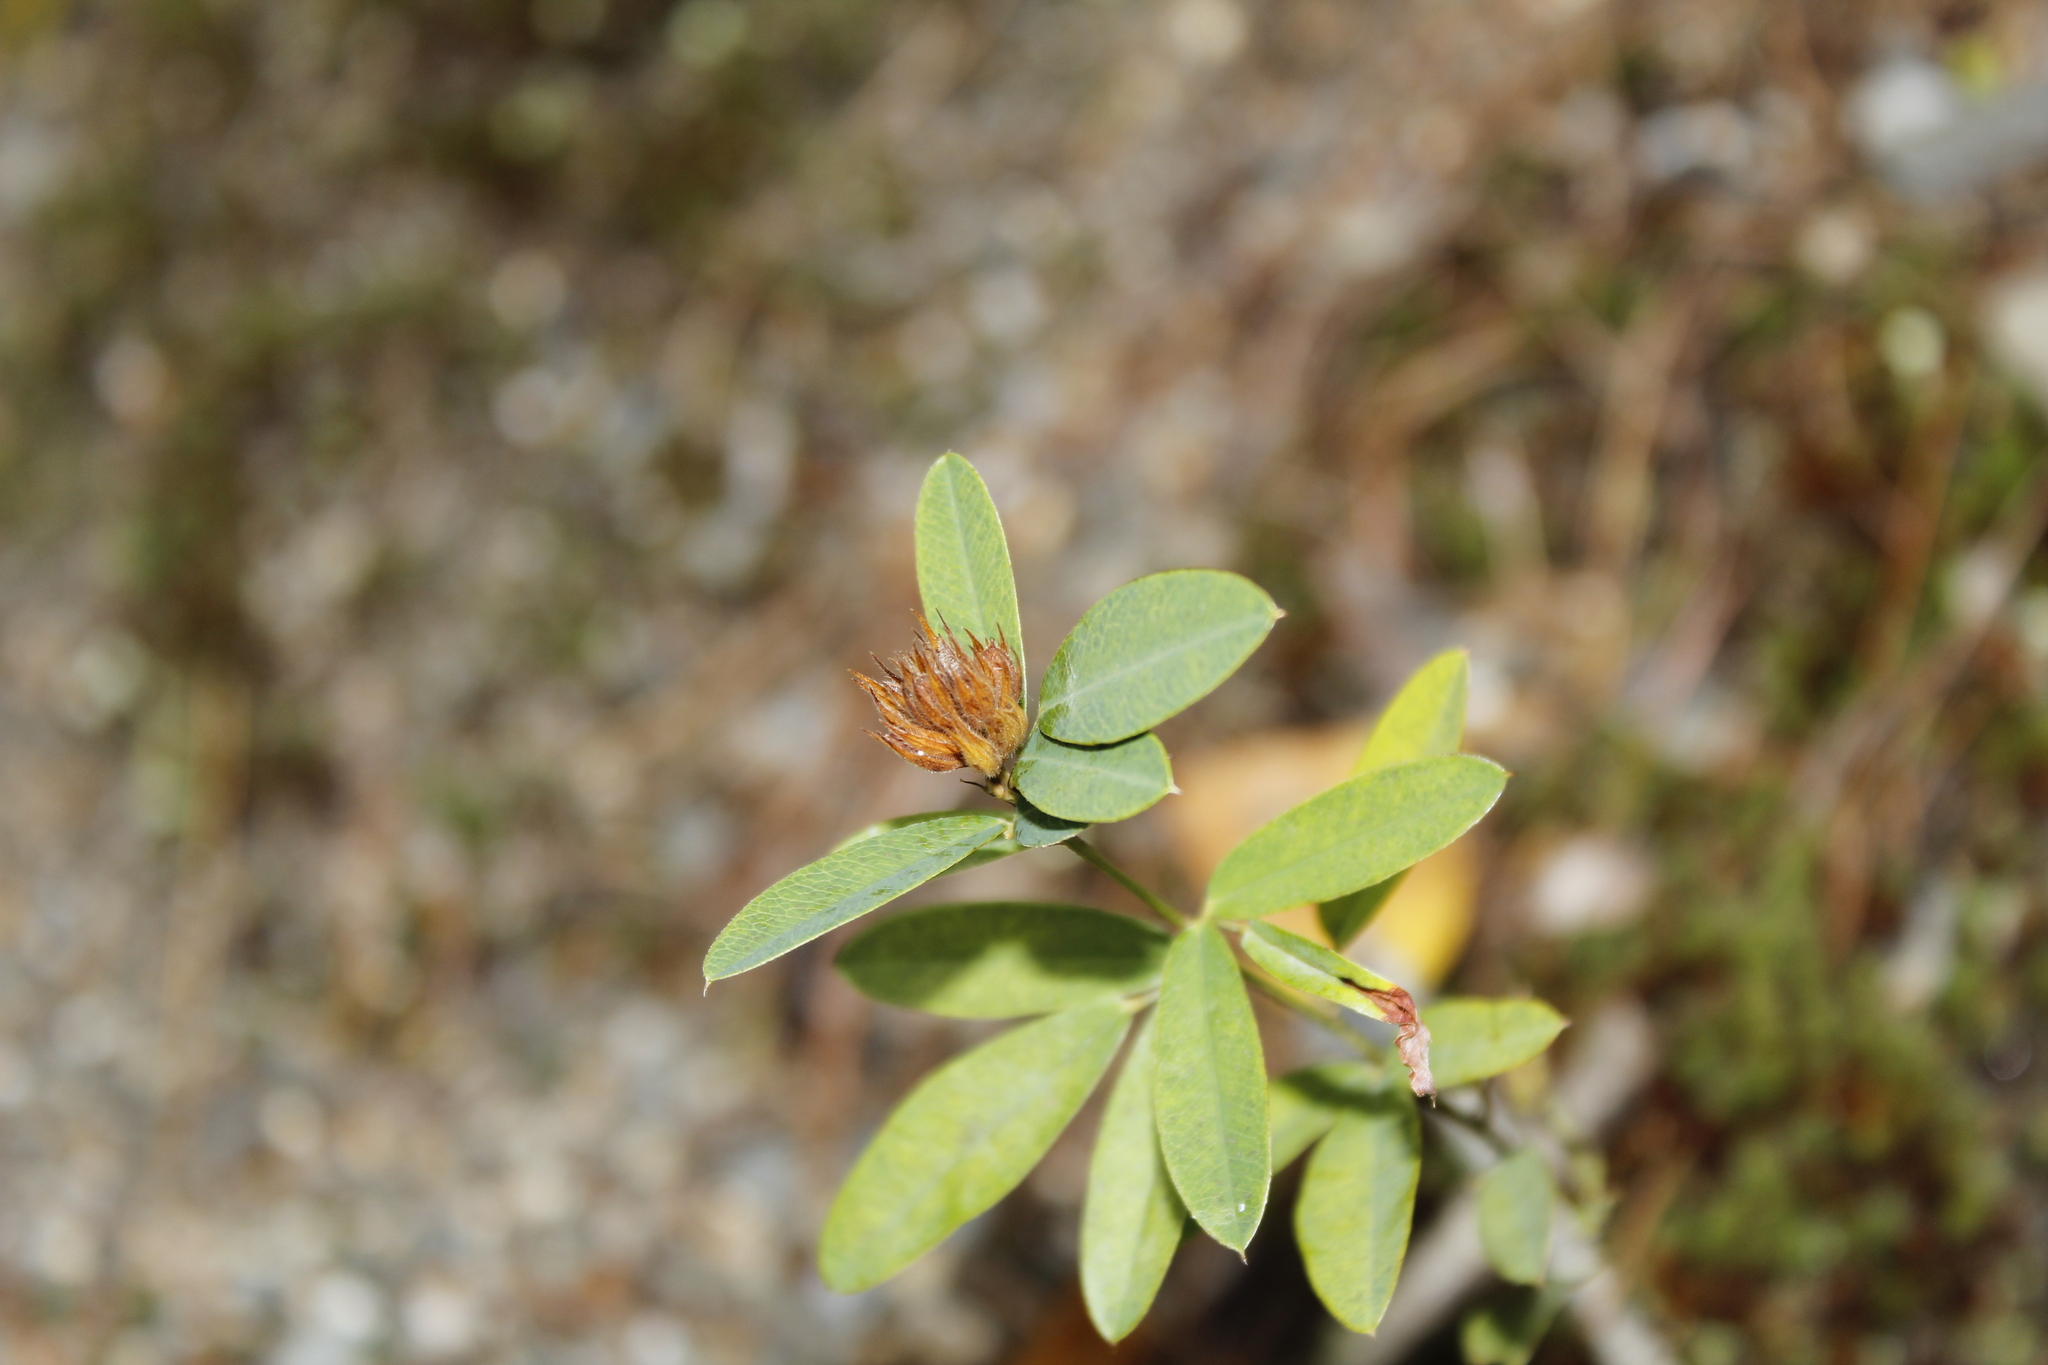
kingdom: Plantae
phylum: Tracheophyta
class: Magnoliopsida
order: Fabales
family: Fabaceae
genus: Lespedeza
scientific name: Lespedeza capitata
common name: Dusty clover
